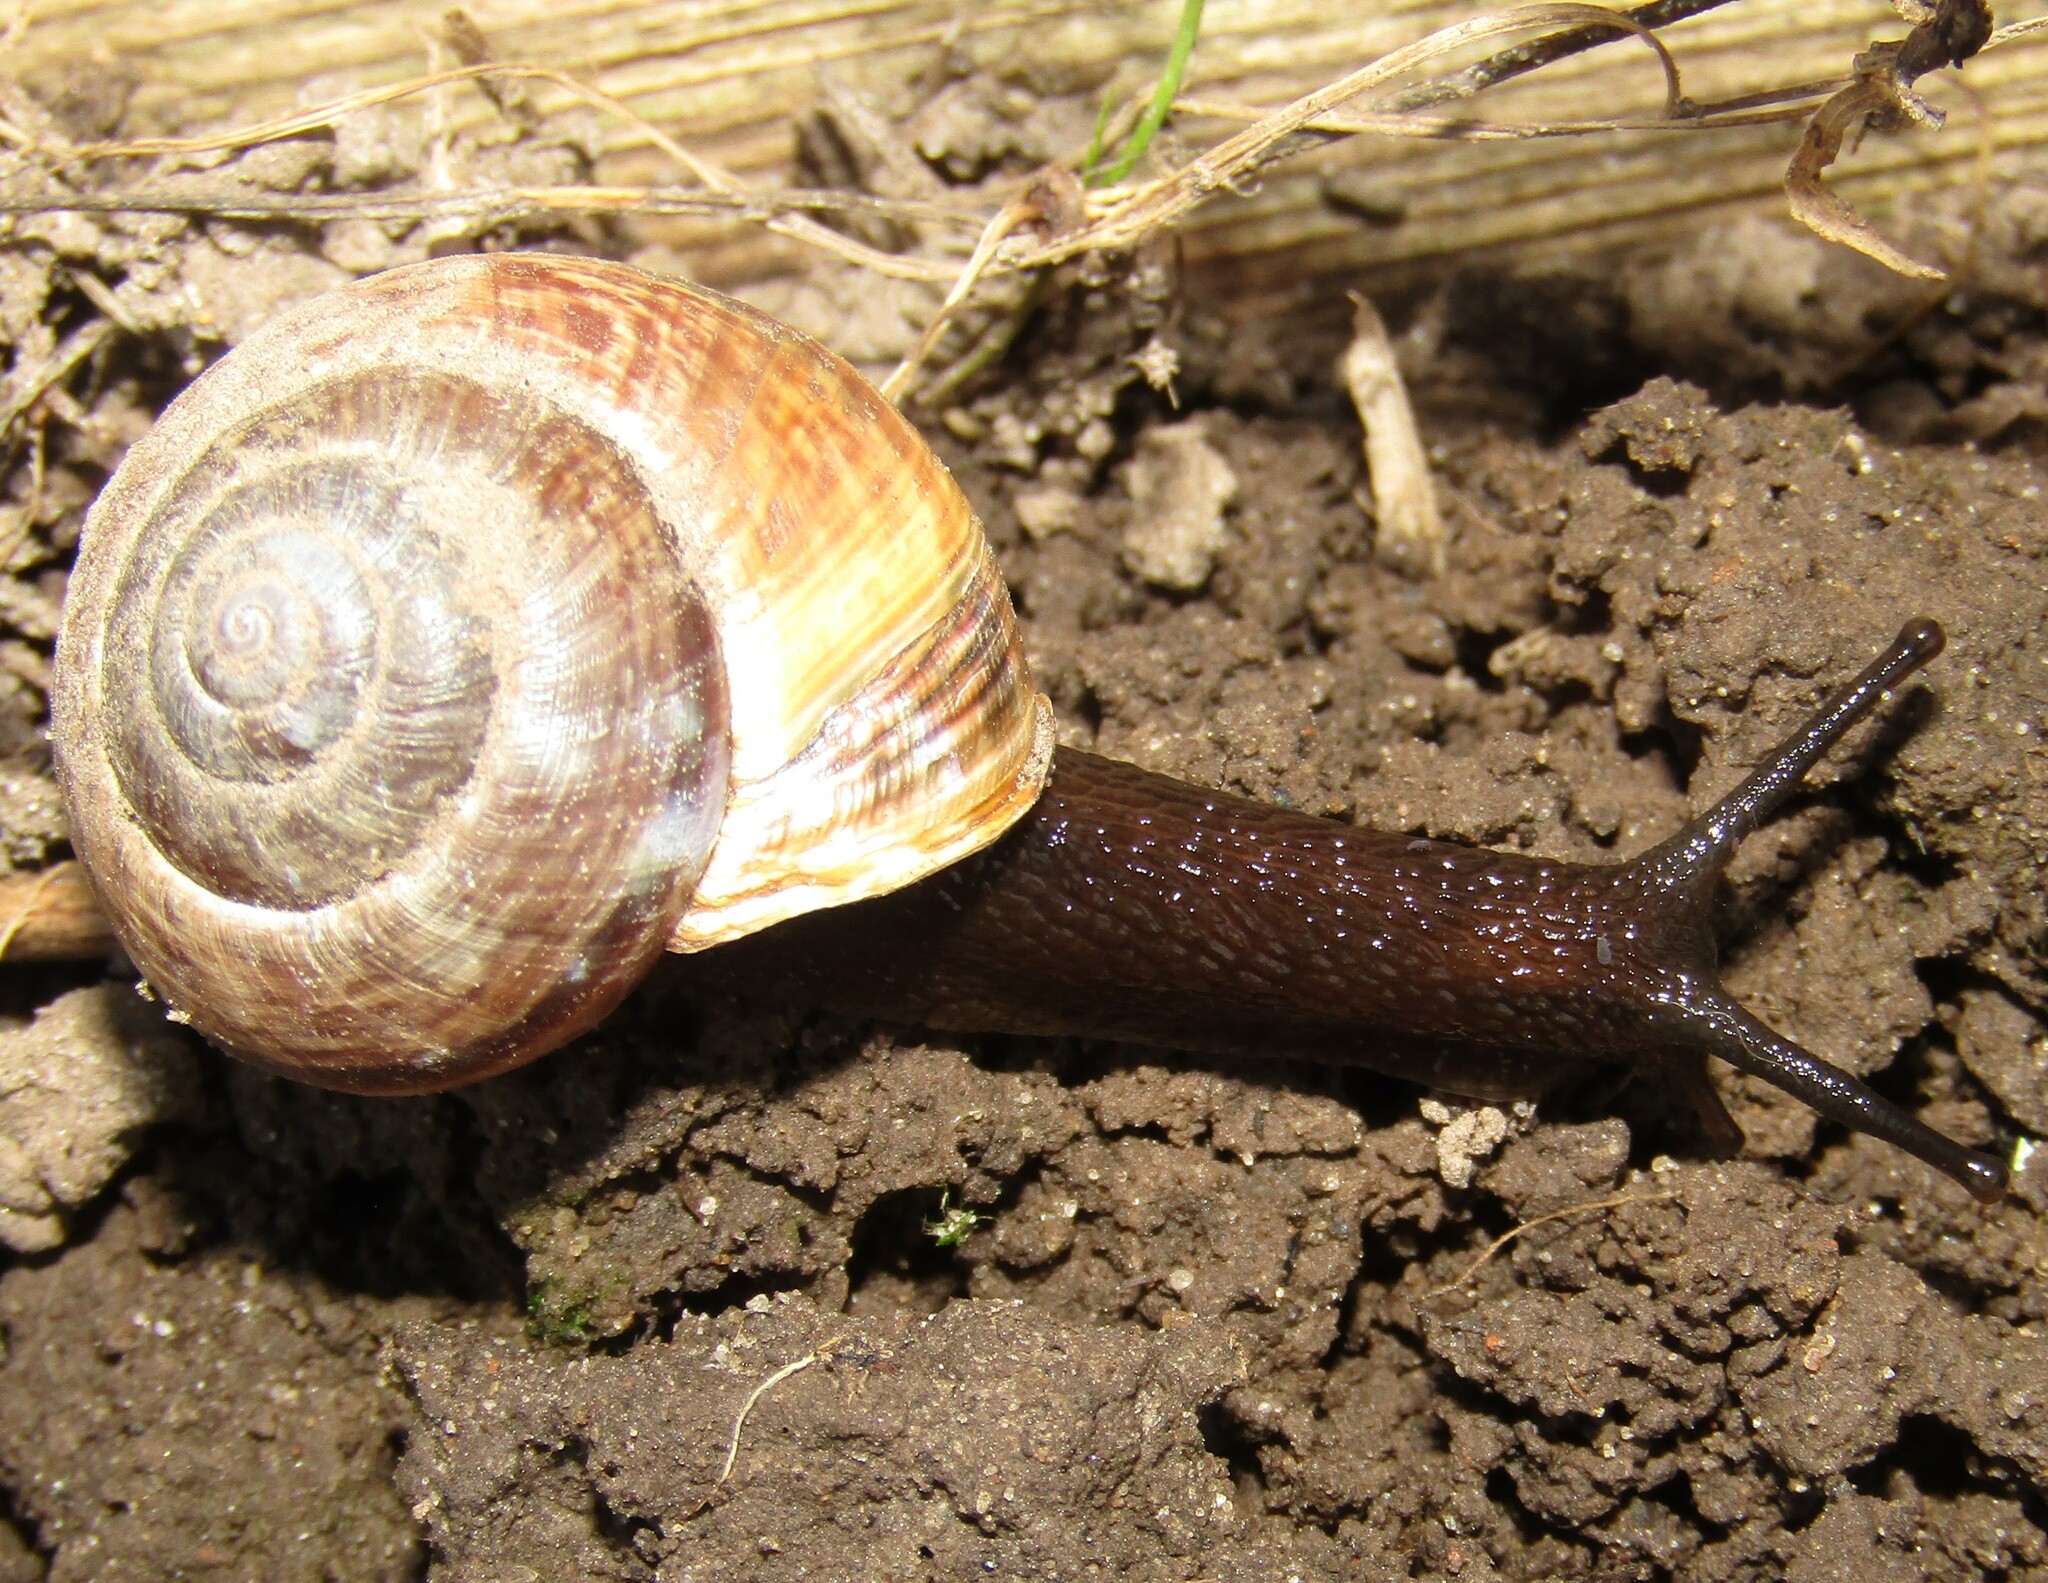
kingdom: Animalia
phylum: Mollusca
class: Gastropoda
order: Stylommatophora
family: Helicidae
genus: Arianta
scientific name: Arianta arbustorum
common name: Copse snail
